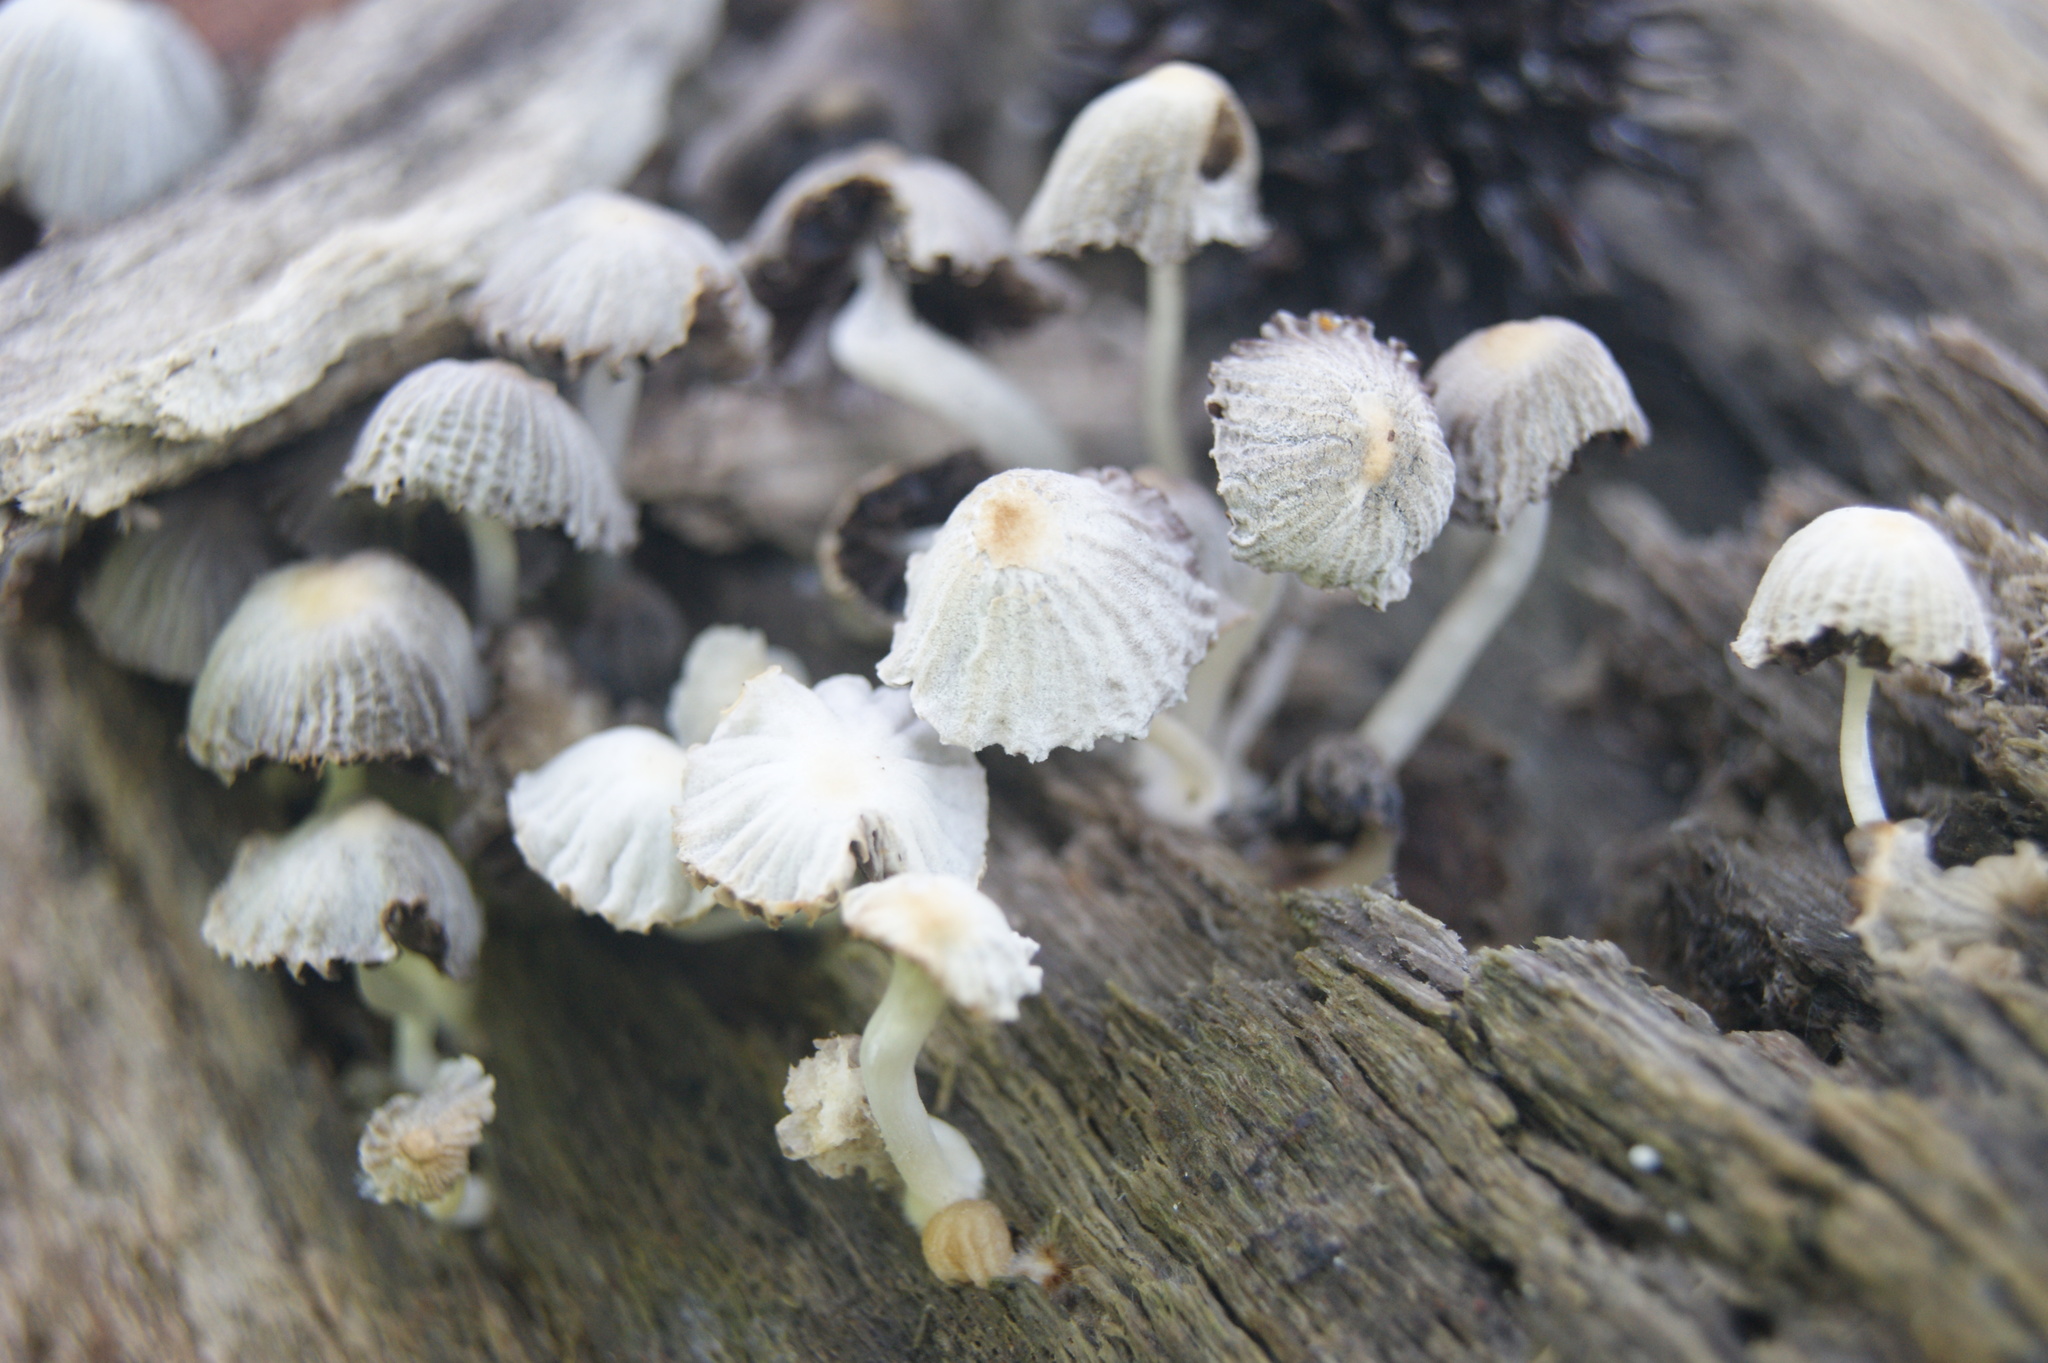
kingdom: Fungi
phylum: Basidiomycota
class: Agaricomycetes
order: Agaricales
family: Psathyrellaceae
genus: Coprinellus
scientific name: Coprinellus disseminatus
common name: Fairies' bonnets
